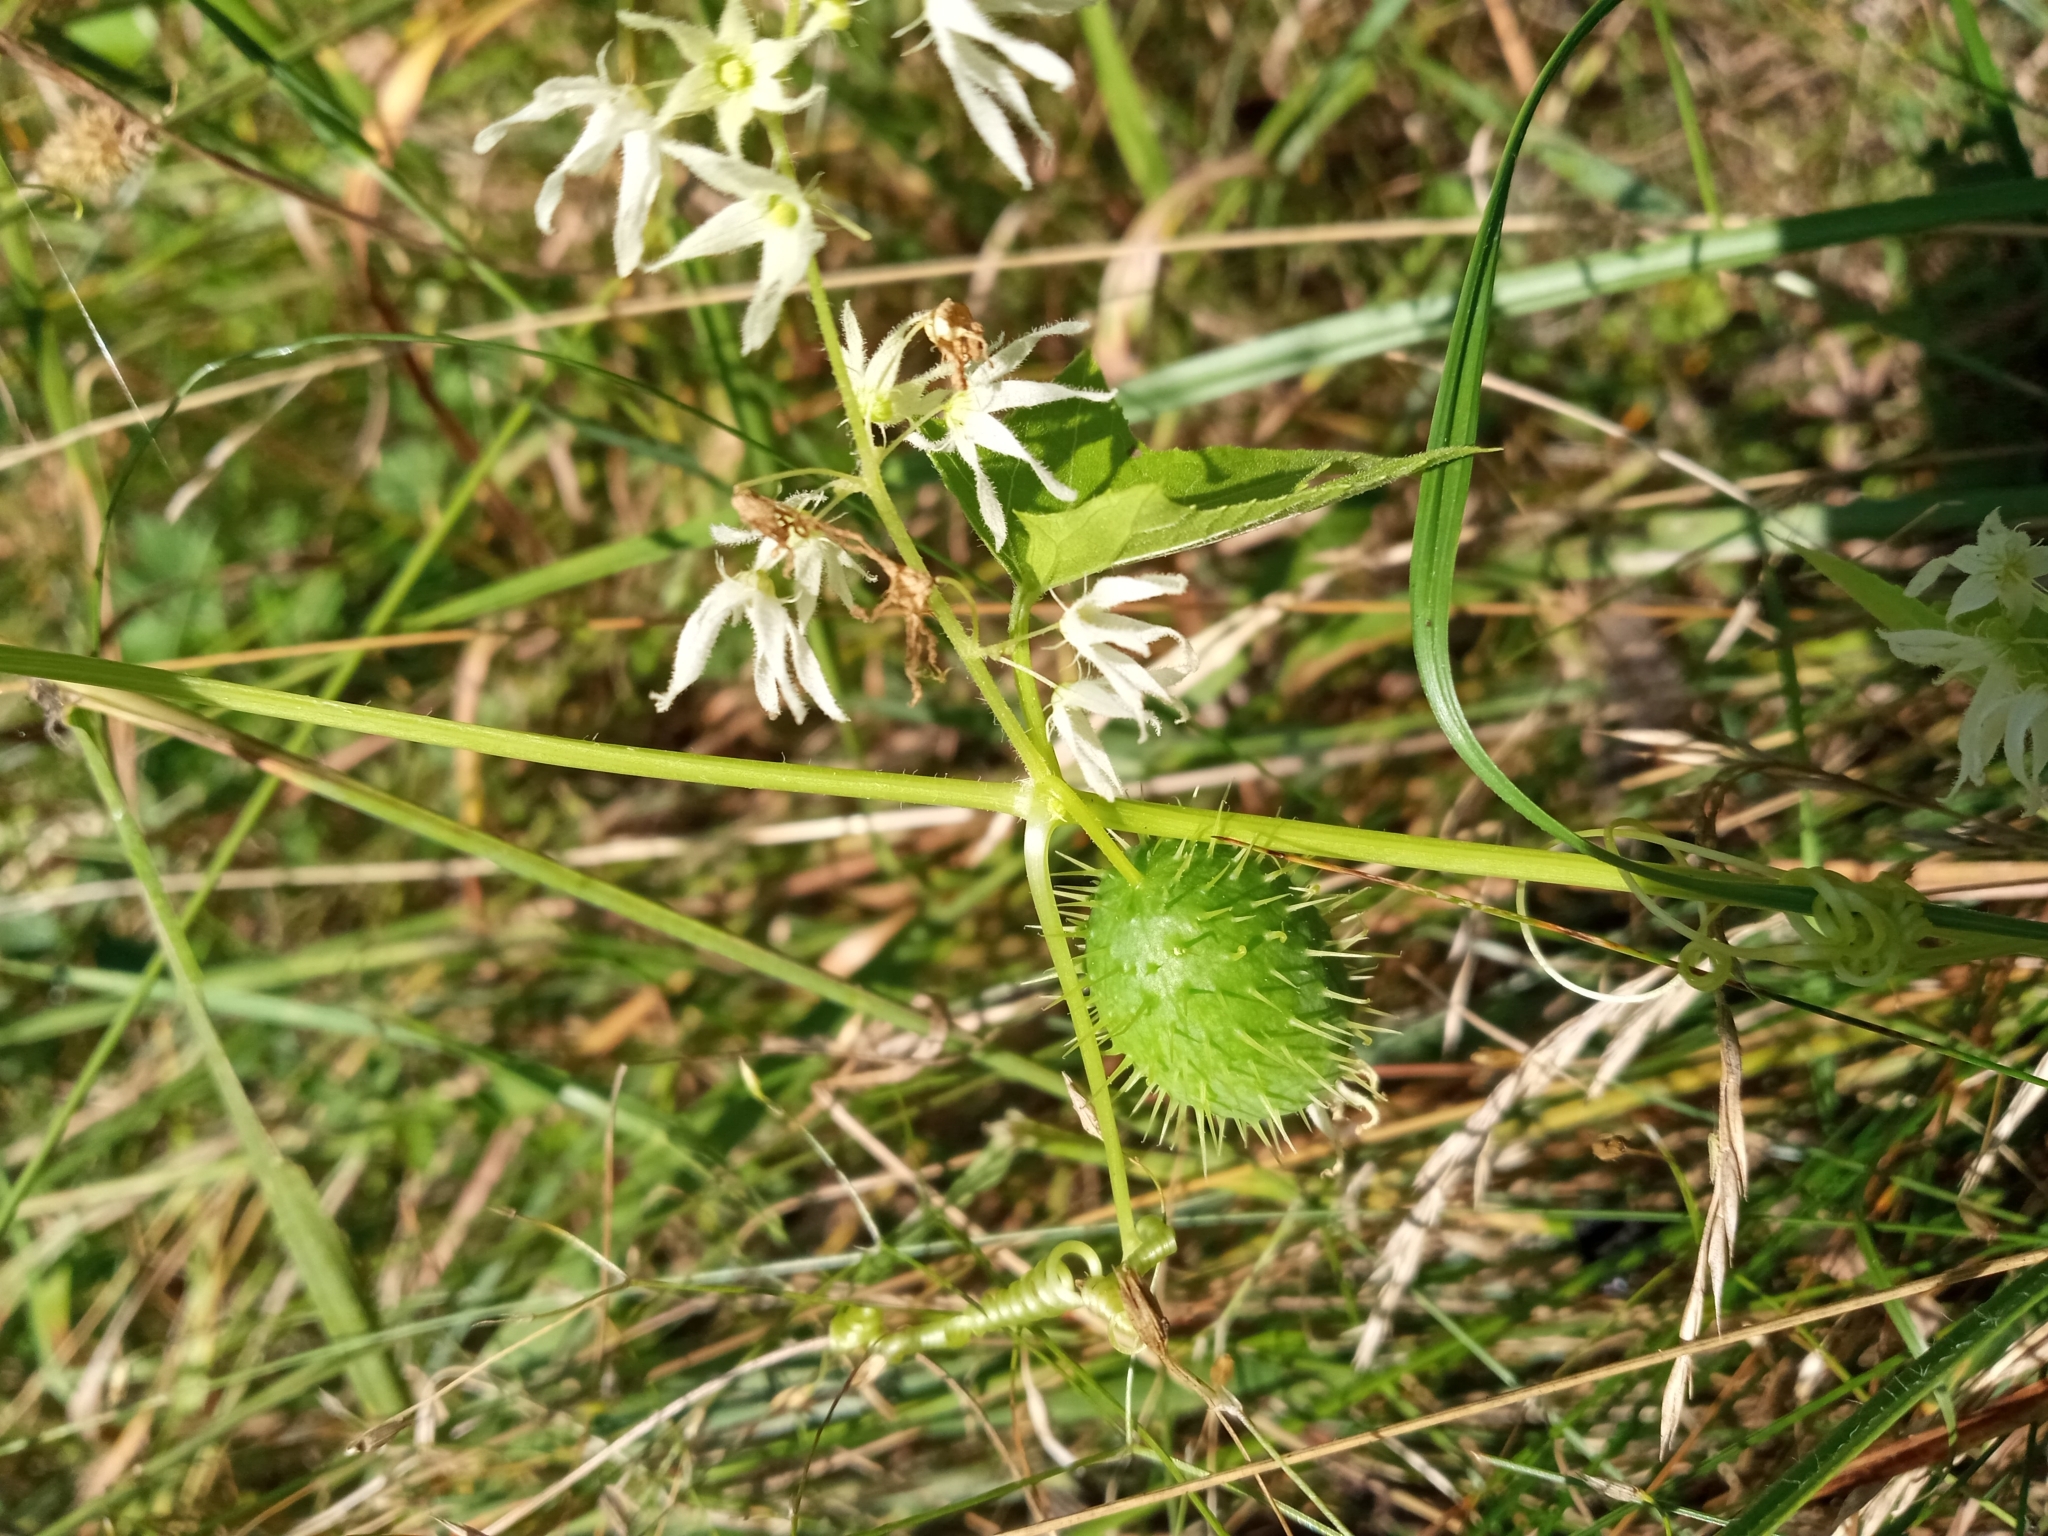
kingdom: Plantae
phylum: Tracheophyta
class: Magnoliopsida
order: Cucurbitales
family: Cucurbitaceae
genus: Echinocystis
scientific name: Echinocystis lobata
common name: Wild cucumber
